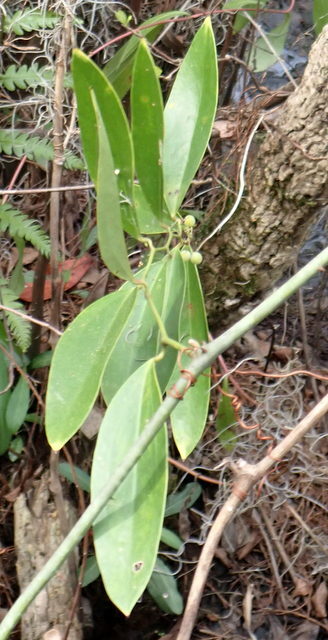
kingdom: Plantae
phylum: Tracheophyta
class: Liliopsida
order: Liliales
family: Smilacaceae
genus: Smilax
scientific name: Smilax laurifolia
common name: Bamboovine
